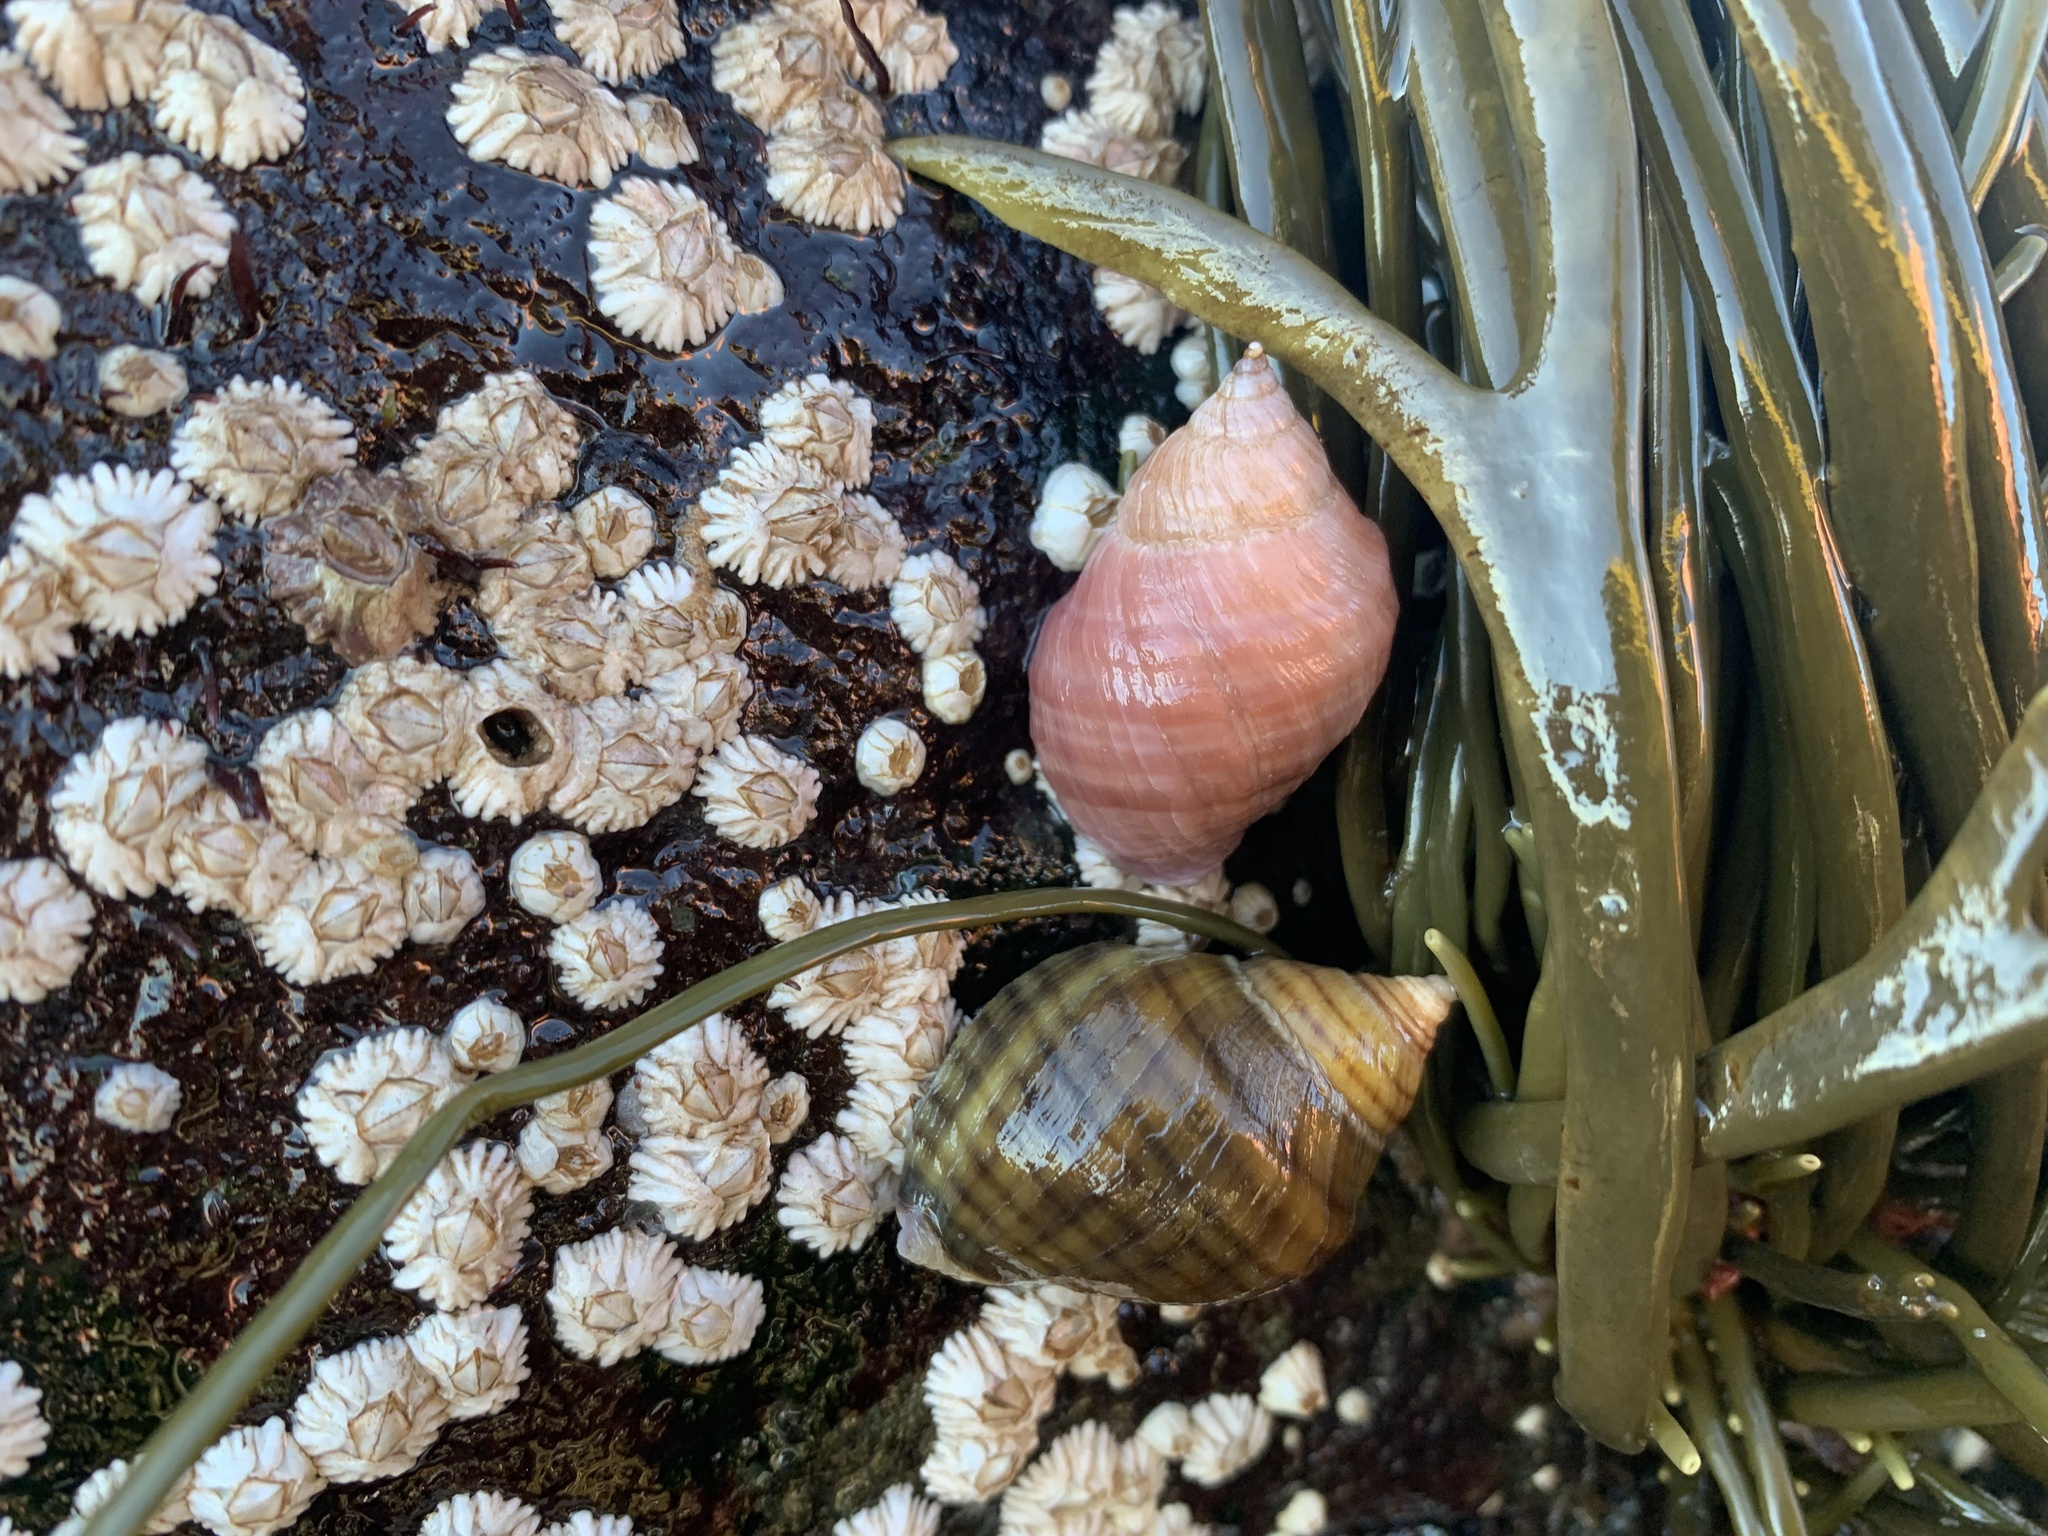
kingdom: Animalia
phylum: Mollusca
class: Gastropoda
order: Neogastropoda
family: Muricidae
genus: Nucella
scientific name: Nucella lapillus
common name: Dog whelk
